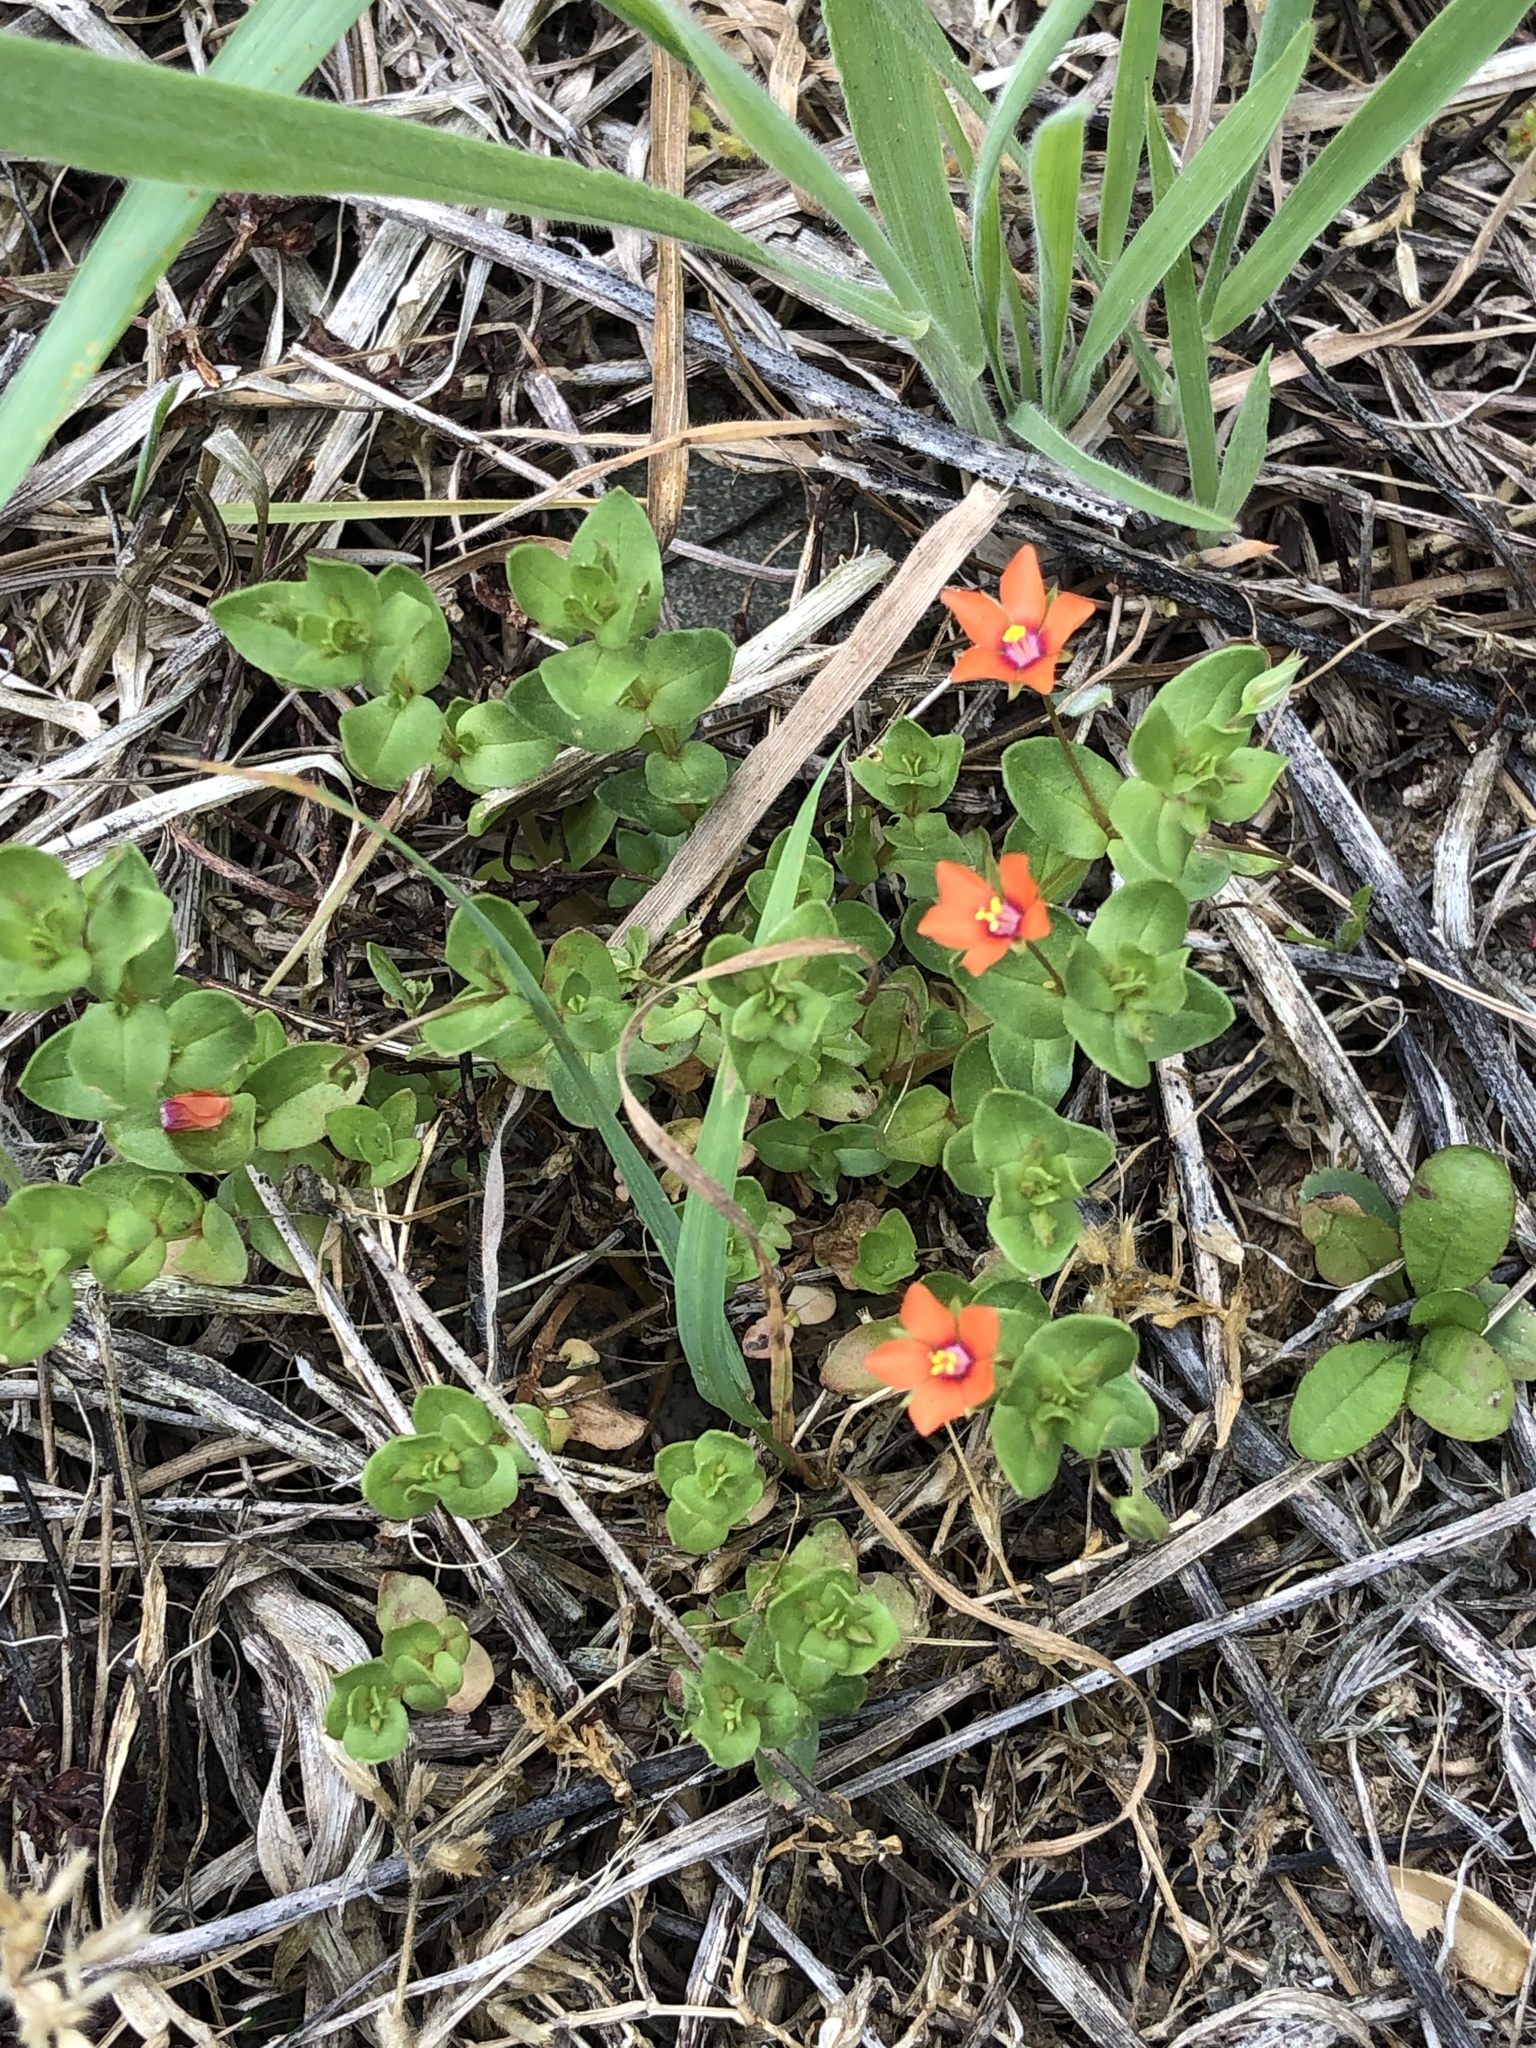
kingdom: Plantae
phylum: Tracheophyta
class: Magnoliopsida
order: Ericales
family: Primulaceae
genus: Lysimachia
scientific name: Lysimachia arvensis
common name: Scarlet pimpernel
